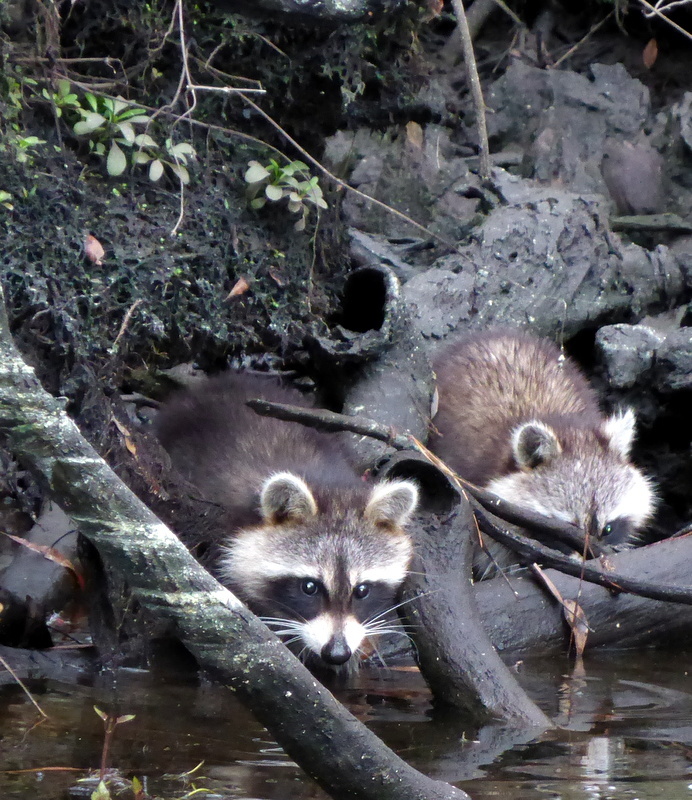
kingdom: Animalia
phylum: Chordata
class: Mammalia
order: Carnivora
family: Procyonidae
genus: Procyon
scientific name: Procyon lotor
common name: Raccoon
